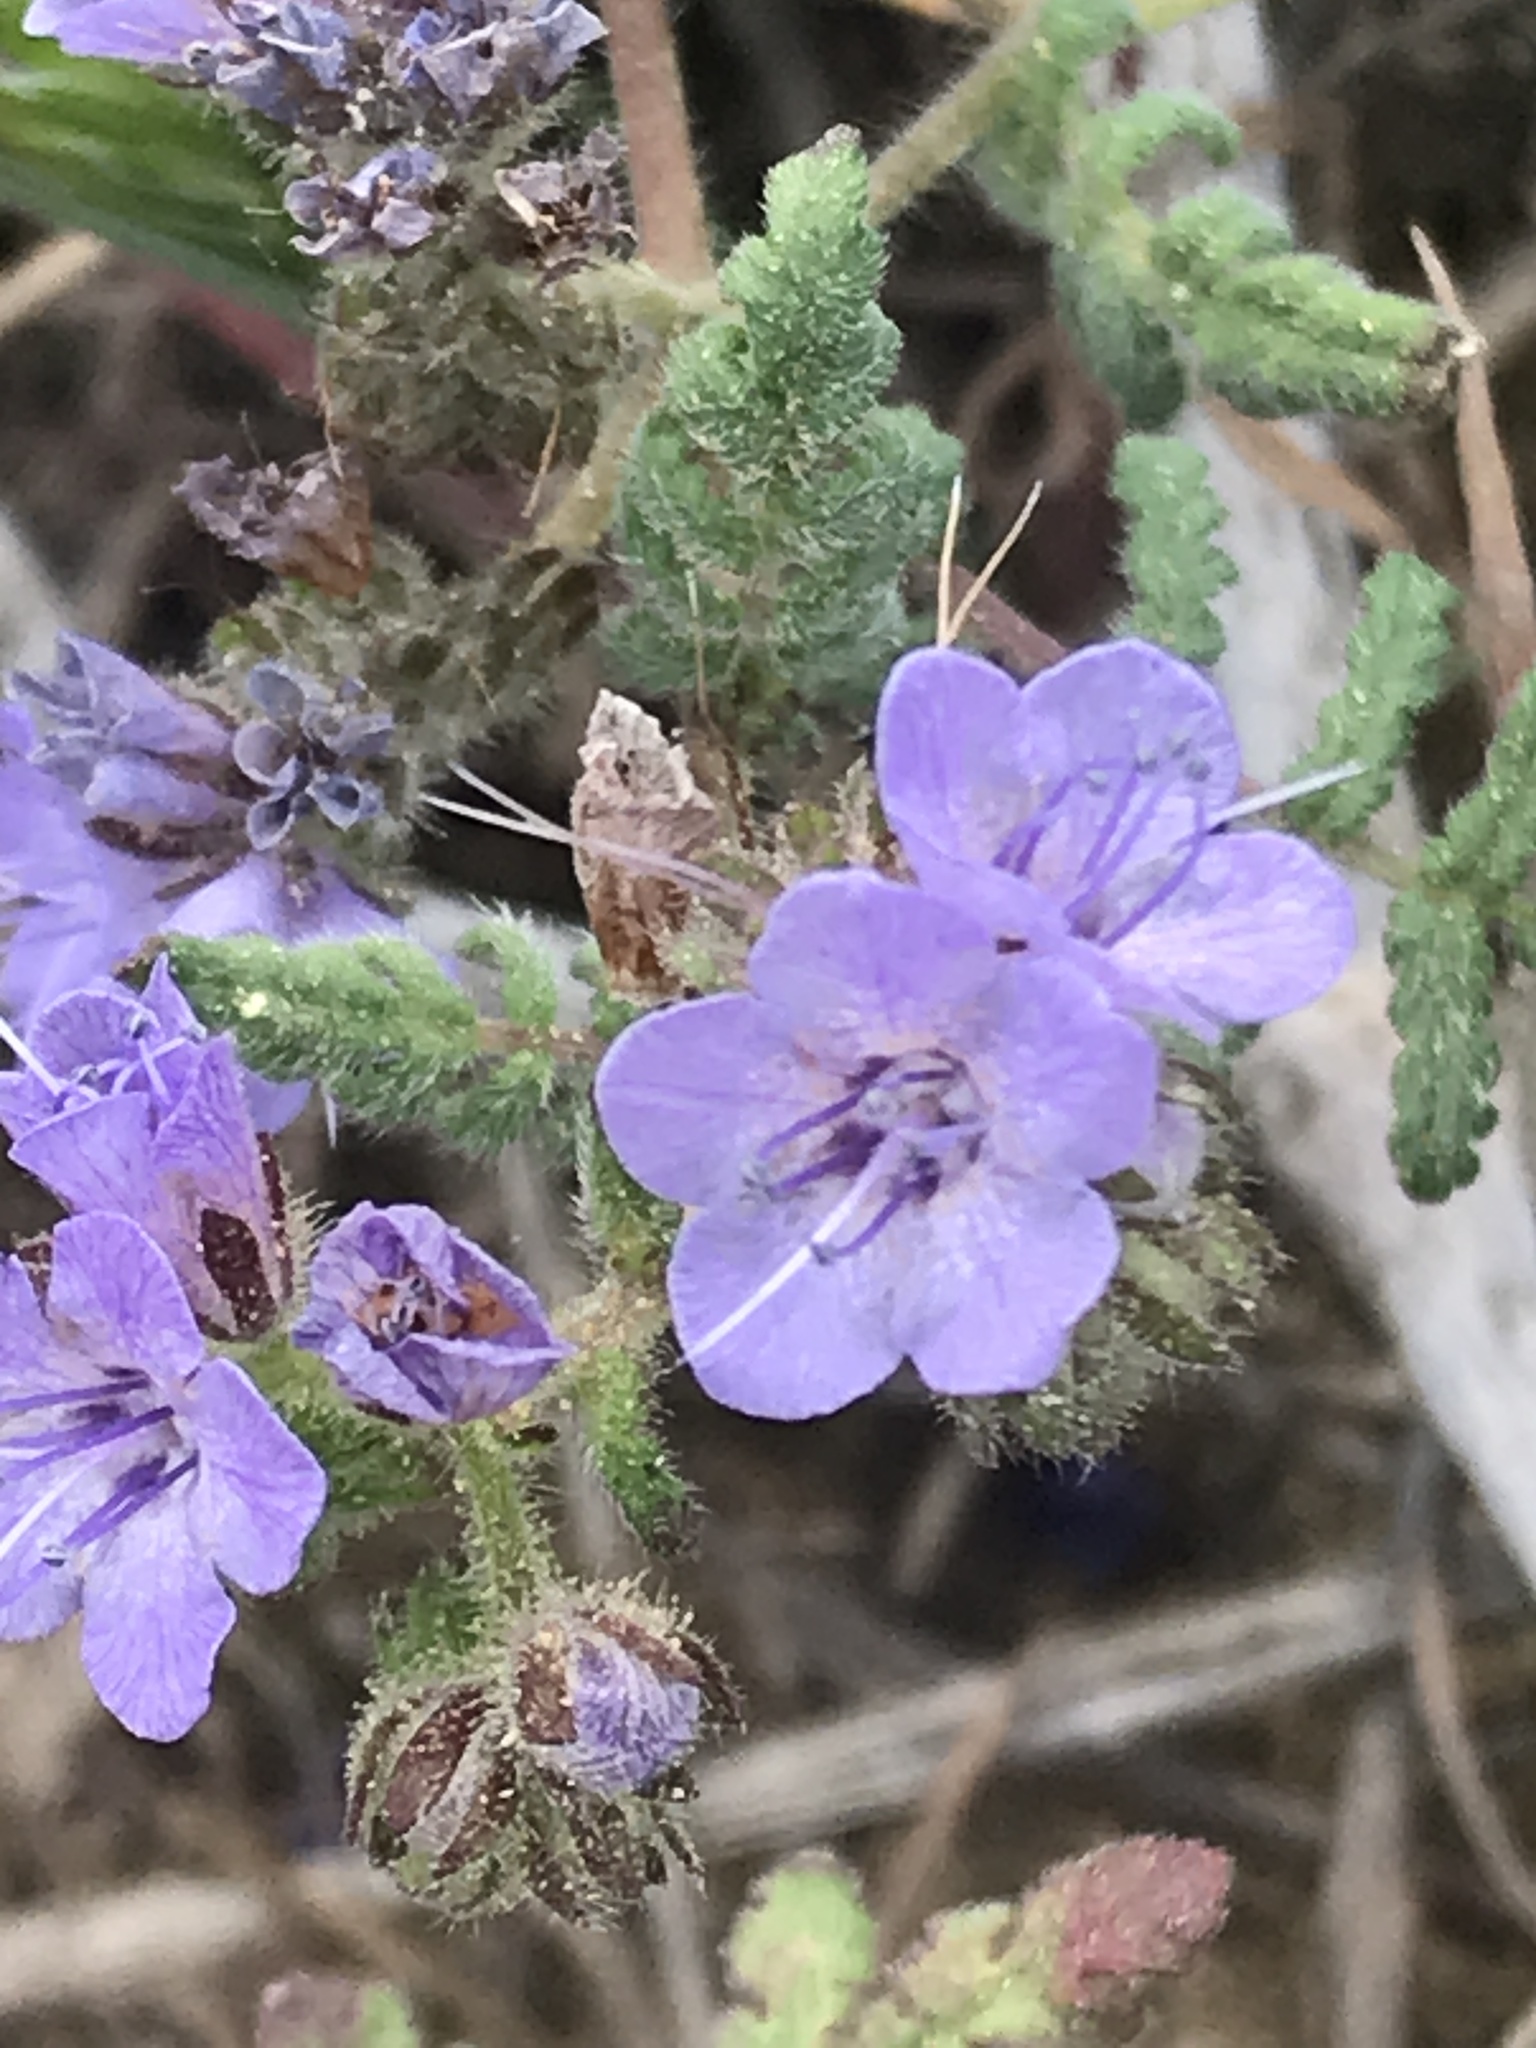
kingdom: Plantae
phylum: Tracheophyta
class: Magnoliopsida
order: Boraginales
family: Hydrophyllaceae
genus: Phacelia
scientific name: Phacelia distans
